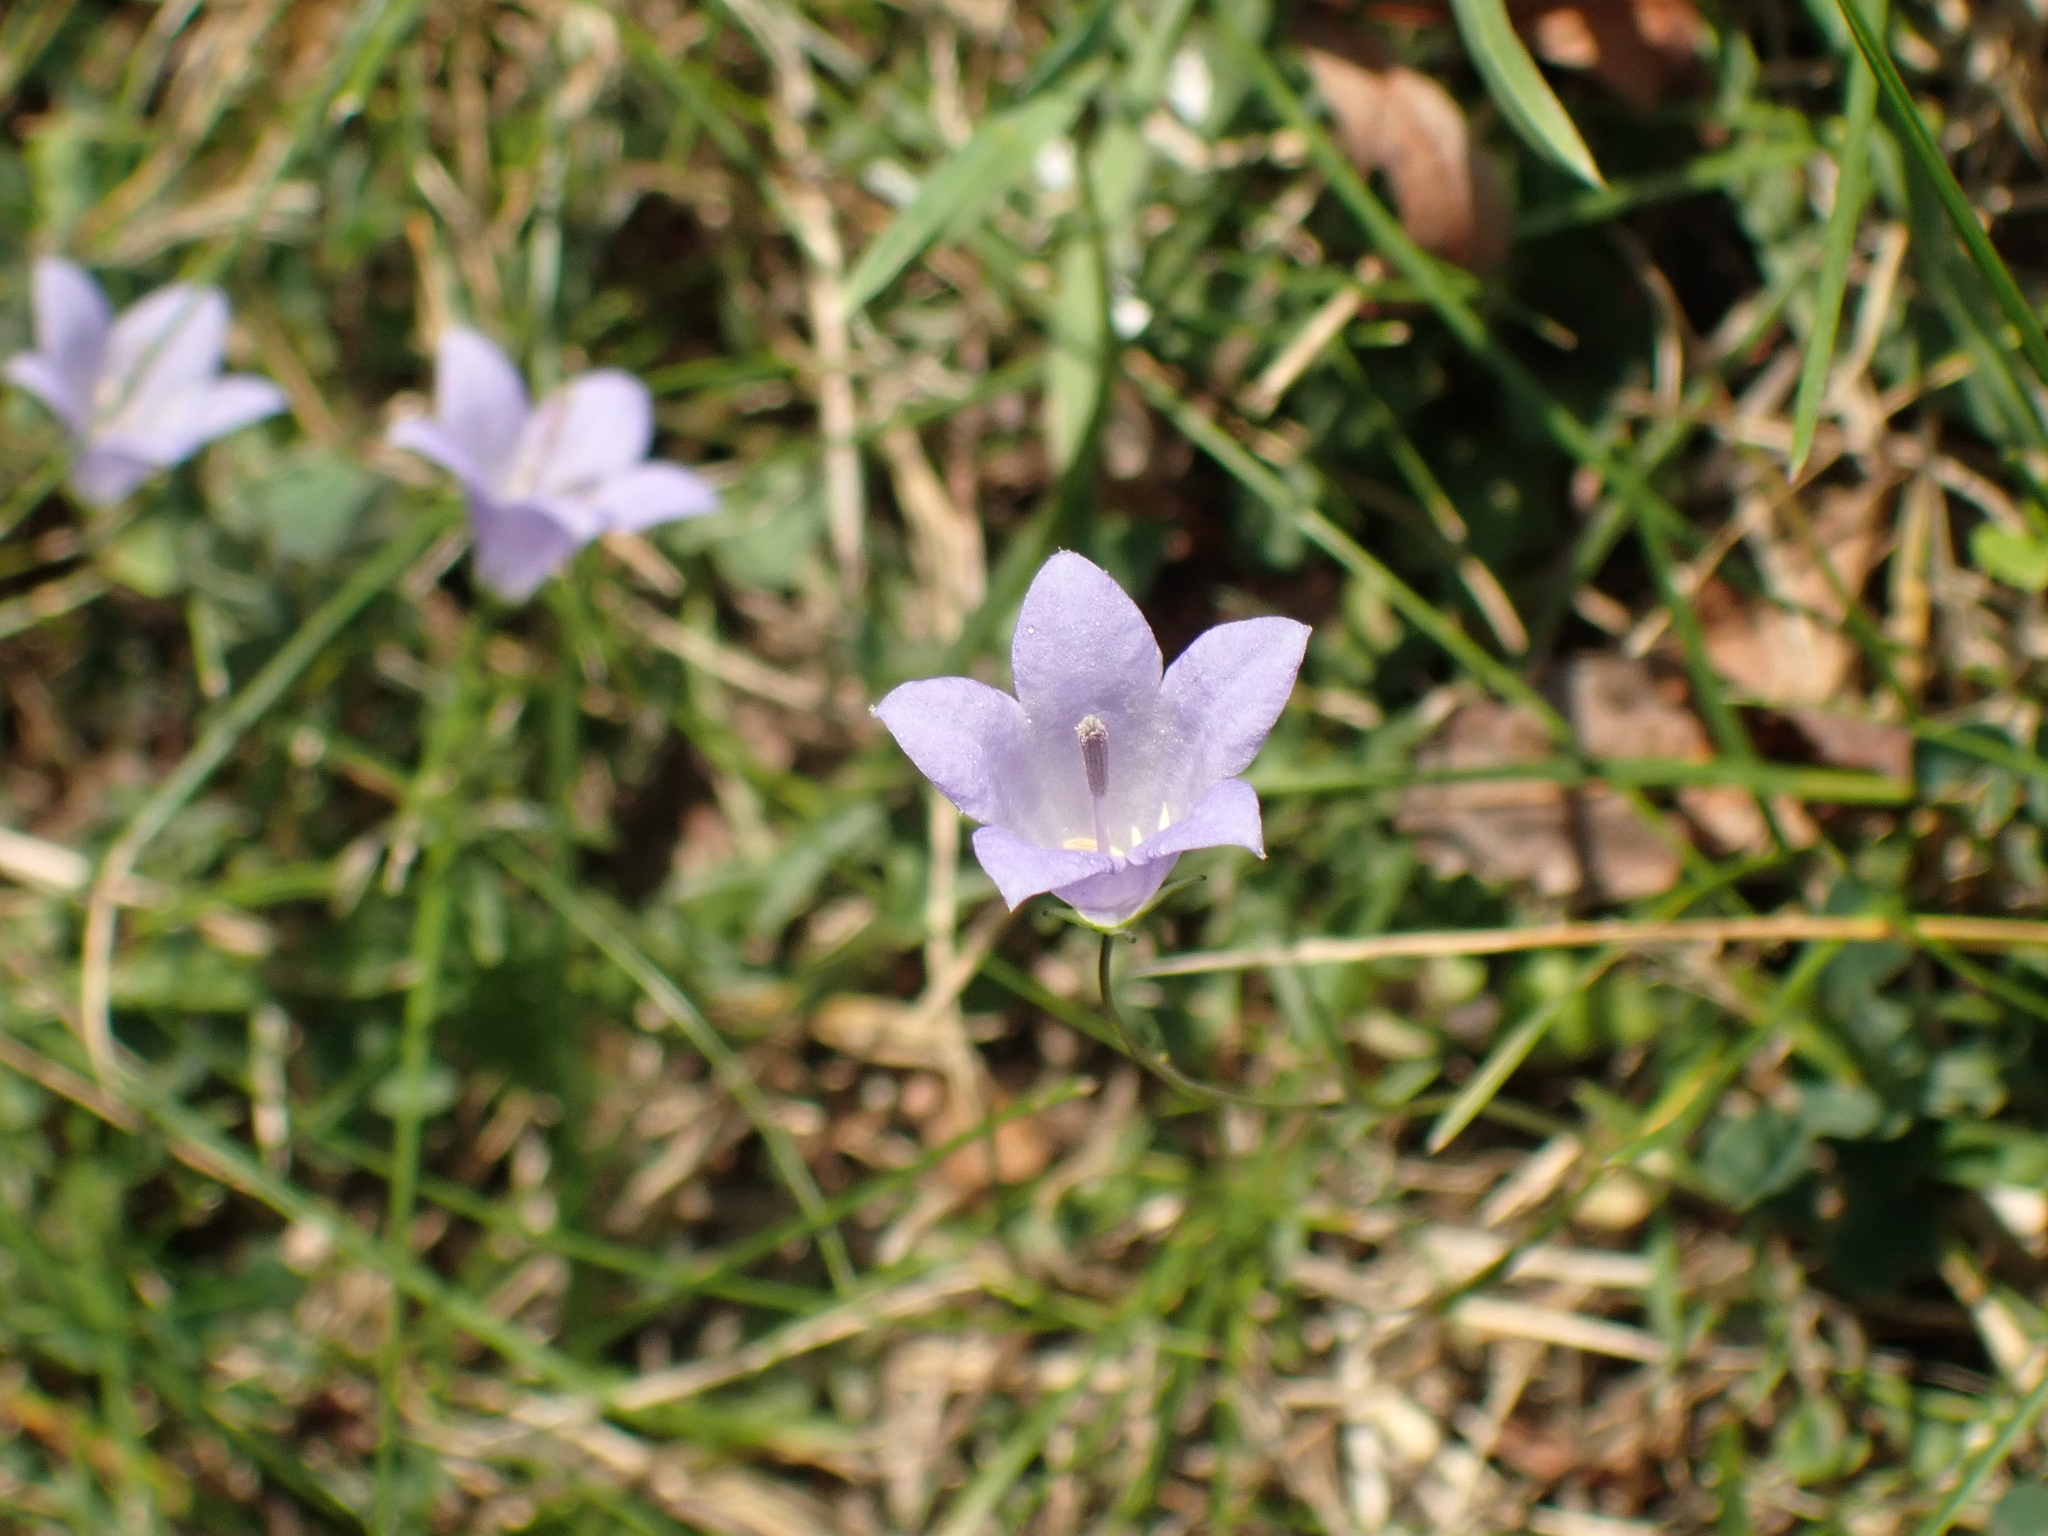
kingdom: Plantae
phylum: Tracheophyta
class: Magnoliopsida
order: Asterales
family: Campanulaceae
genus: Campanula
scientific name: Campanula rotundifolia
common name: Harebell
